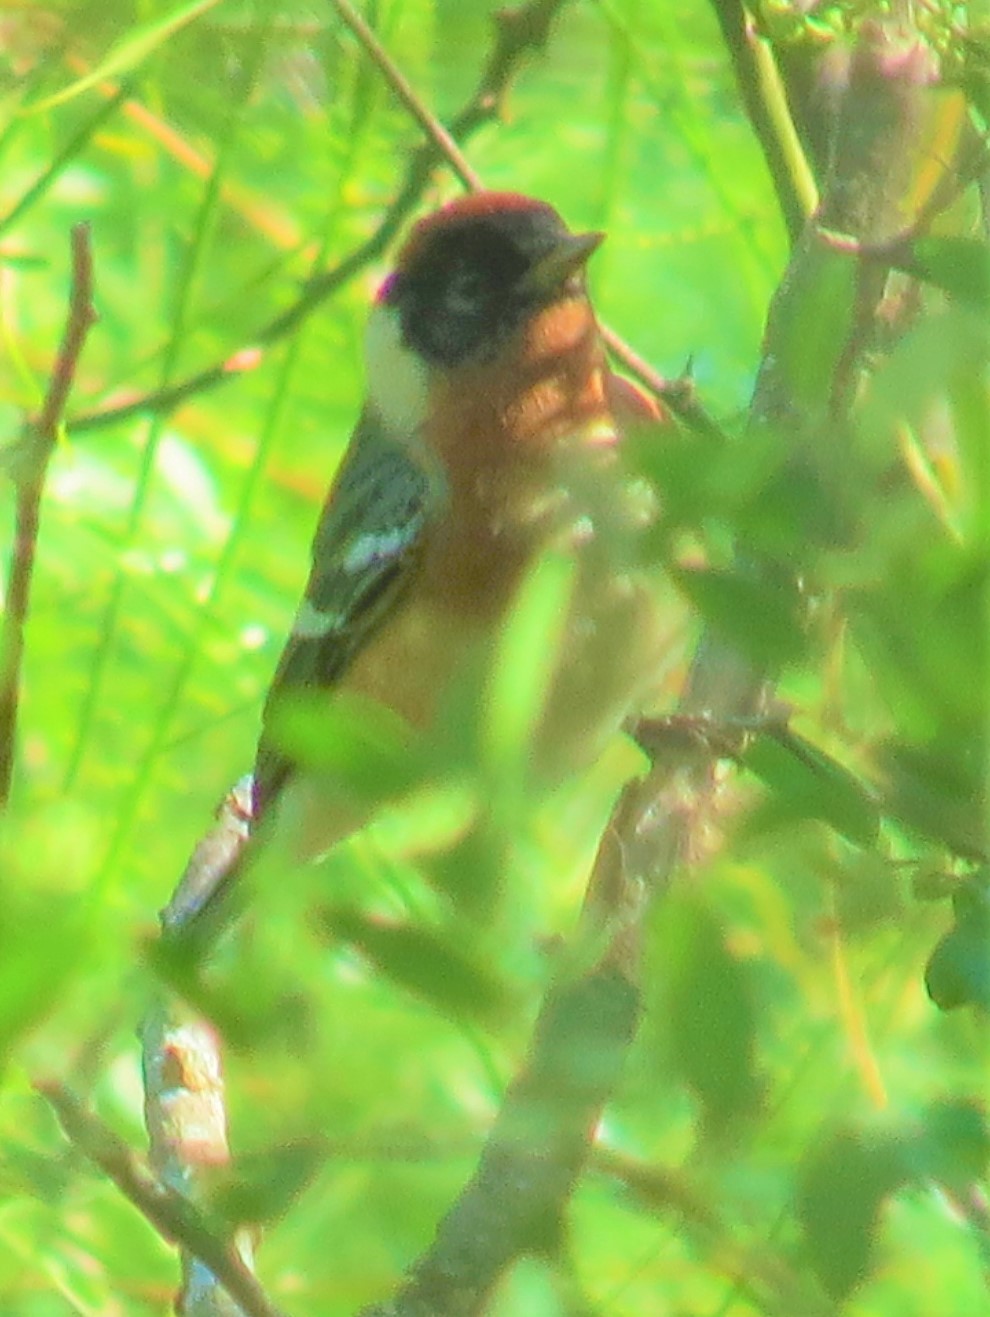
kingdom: Animalia
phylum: Chordata
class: Aves
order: Passeriformes
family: Parulidae
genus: Setophaga
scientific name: Setophaga castanea
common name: Bay-breasted warbler
